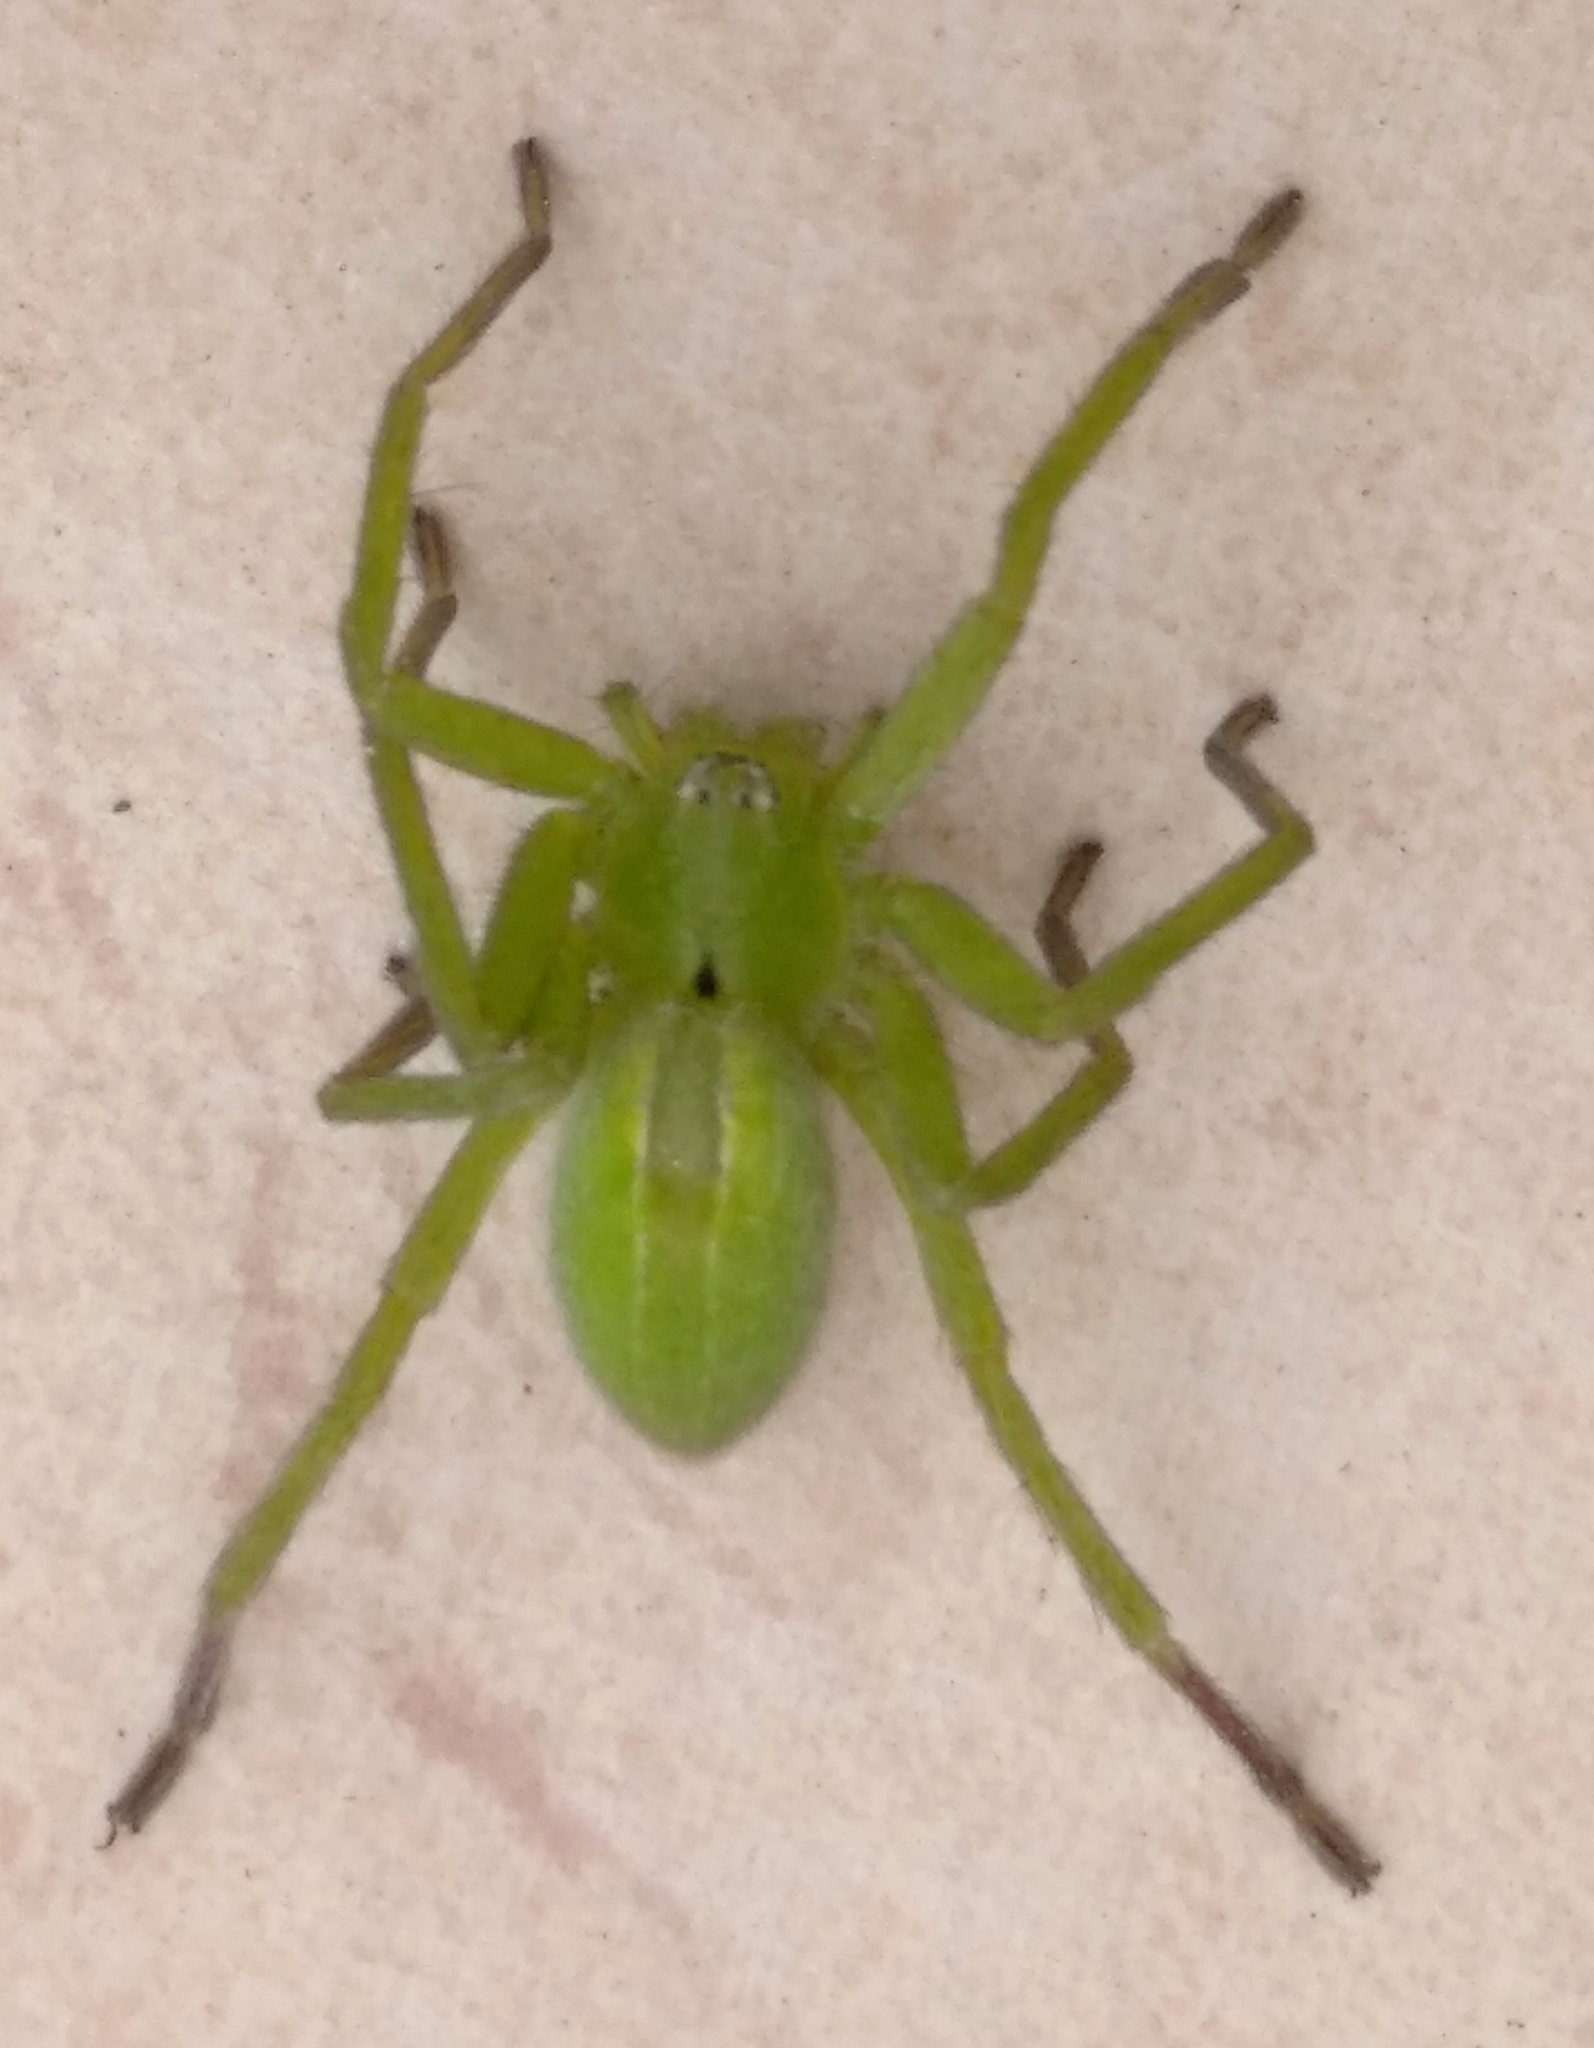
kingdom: Animalia
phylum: Arthropoda
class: Arachnida
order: Araneae
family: Sparassidae
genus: Micrommata
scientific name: Micrommata ligurina
